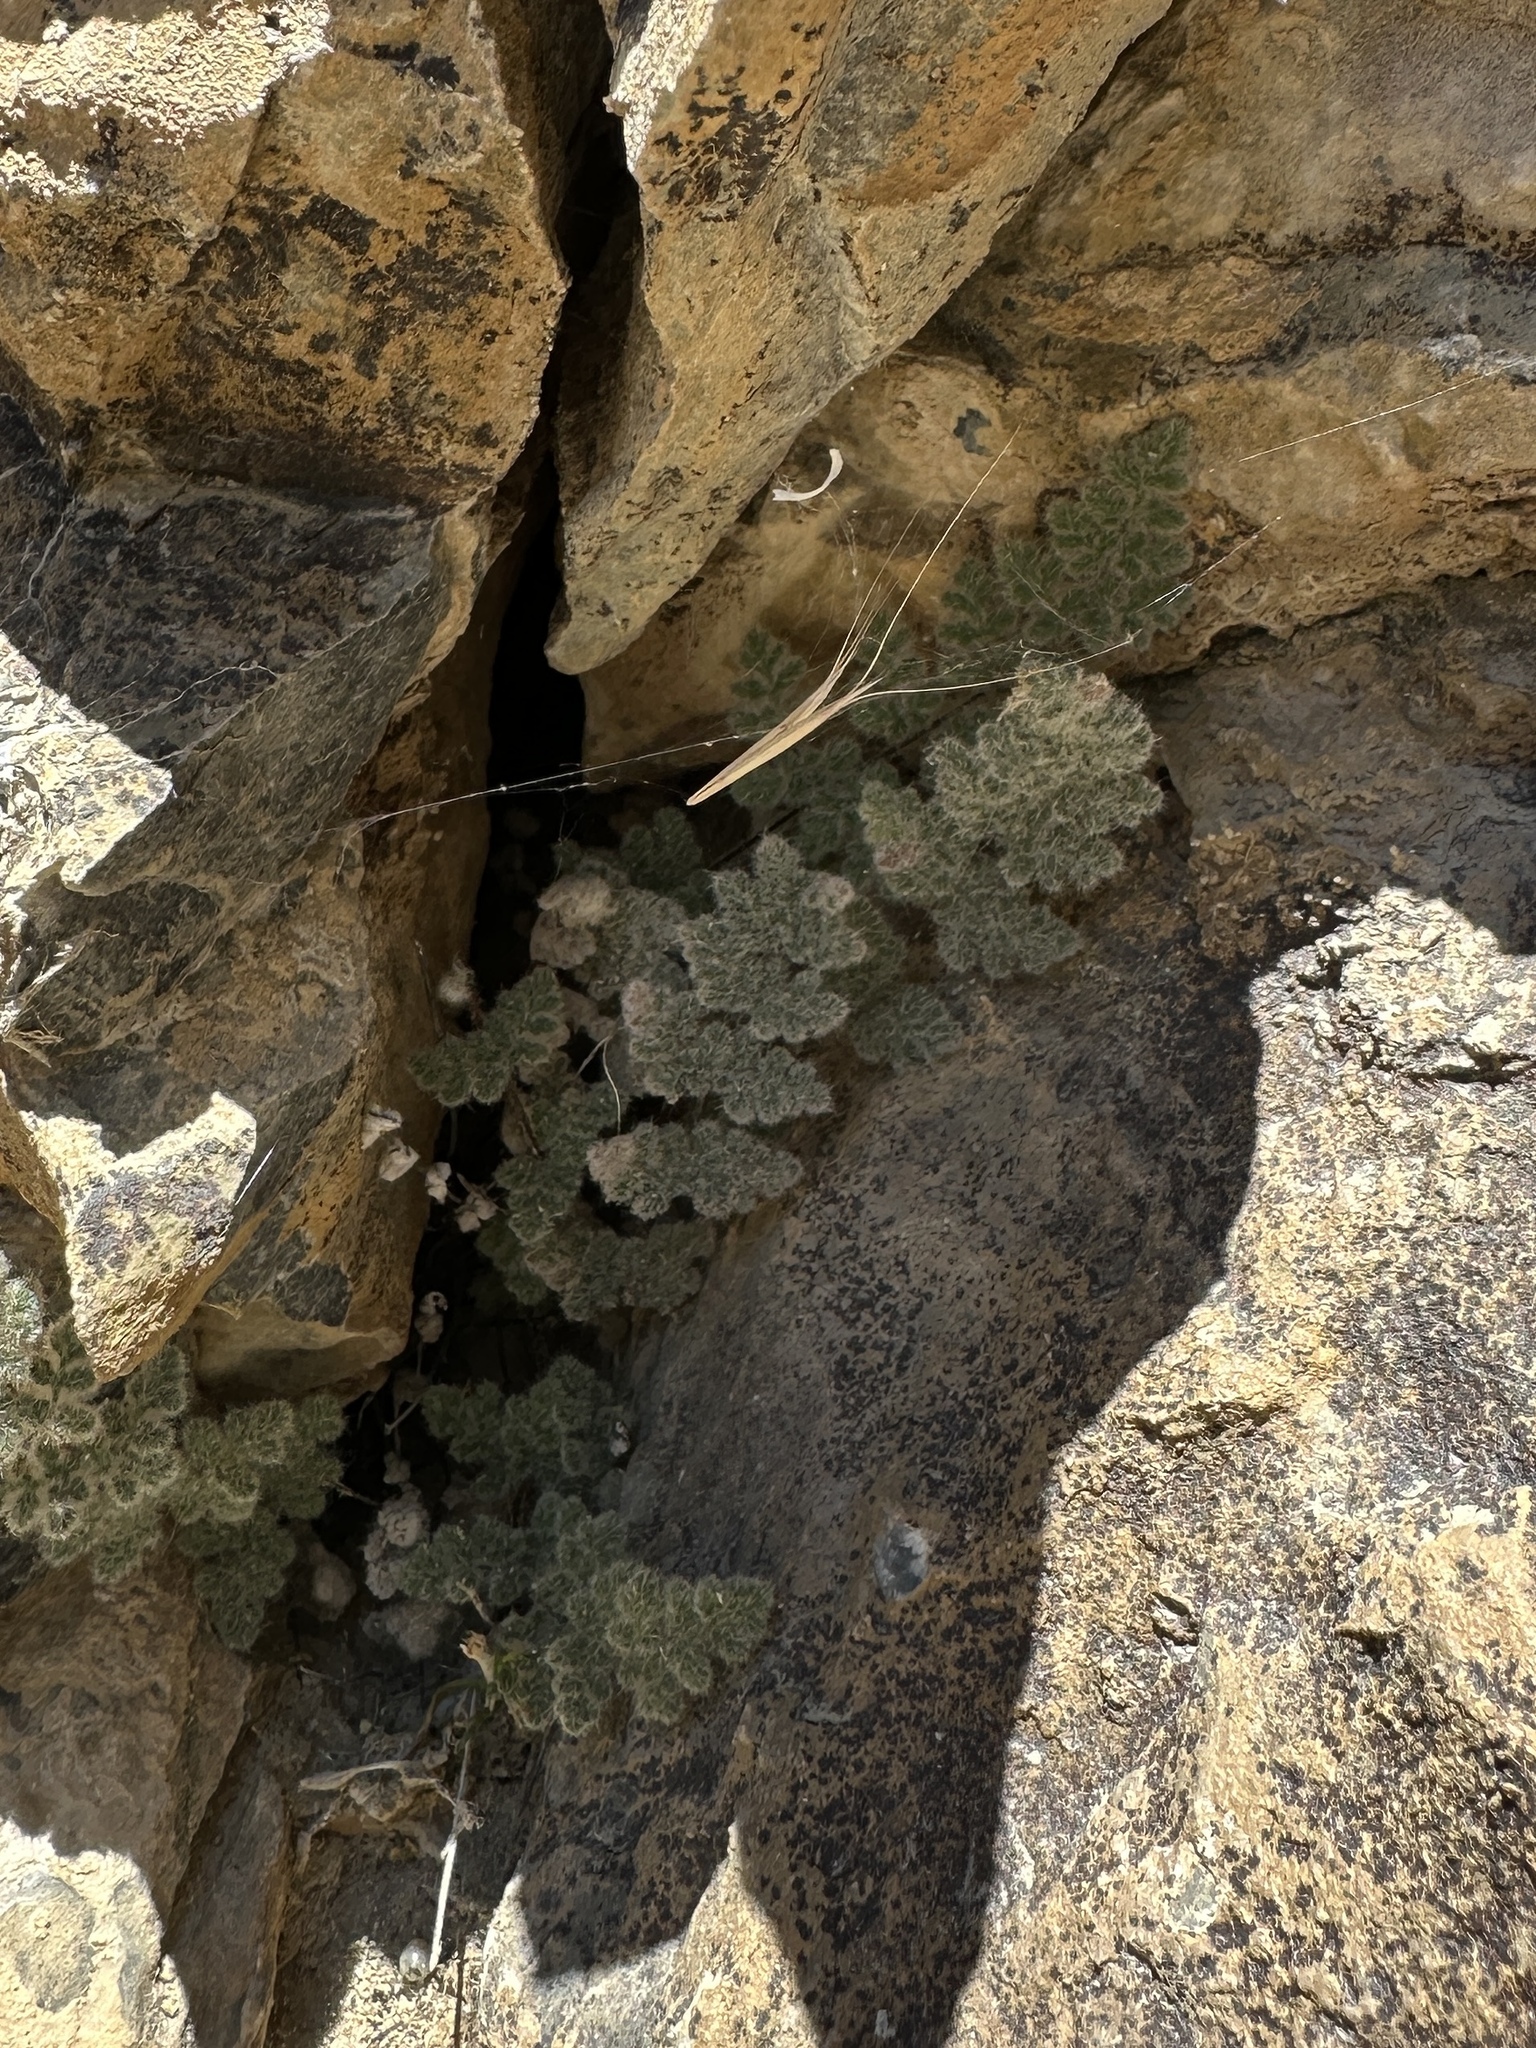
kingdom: Plantae
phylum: Tracheophyta
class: Polypodiopsida
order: Polypodiales
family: Pteridaceae
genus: Myriopteris
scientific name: Myriopteris parryi
